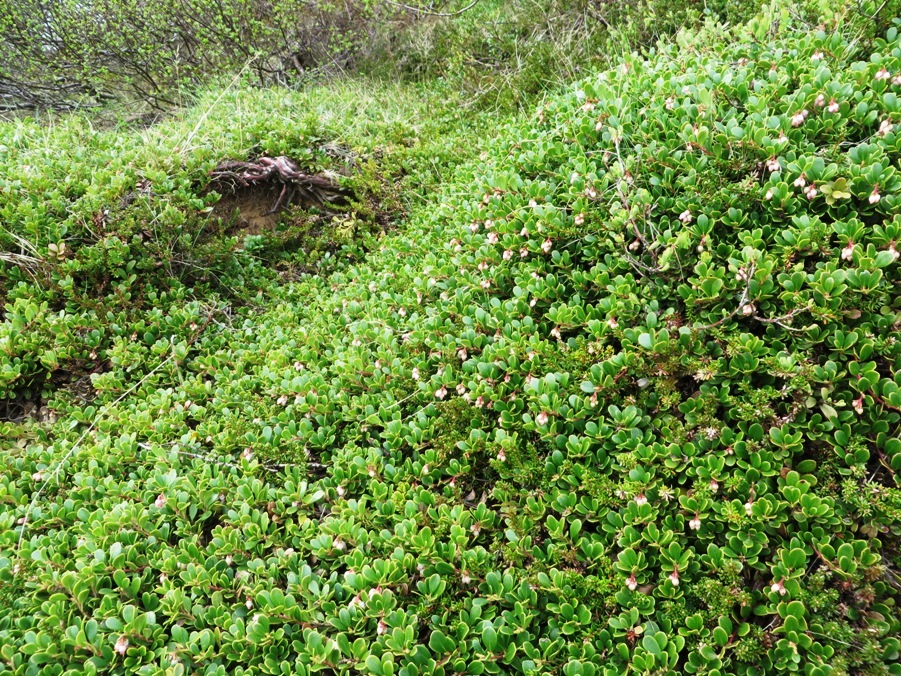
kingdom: Plantae
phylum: Tracheophyta
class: Magnoliopsida
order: Ericales
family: Ericaceae
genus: Arctostaphylos
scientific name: Arctostaphylos uva-ursi
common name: Bearberry
